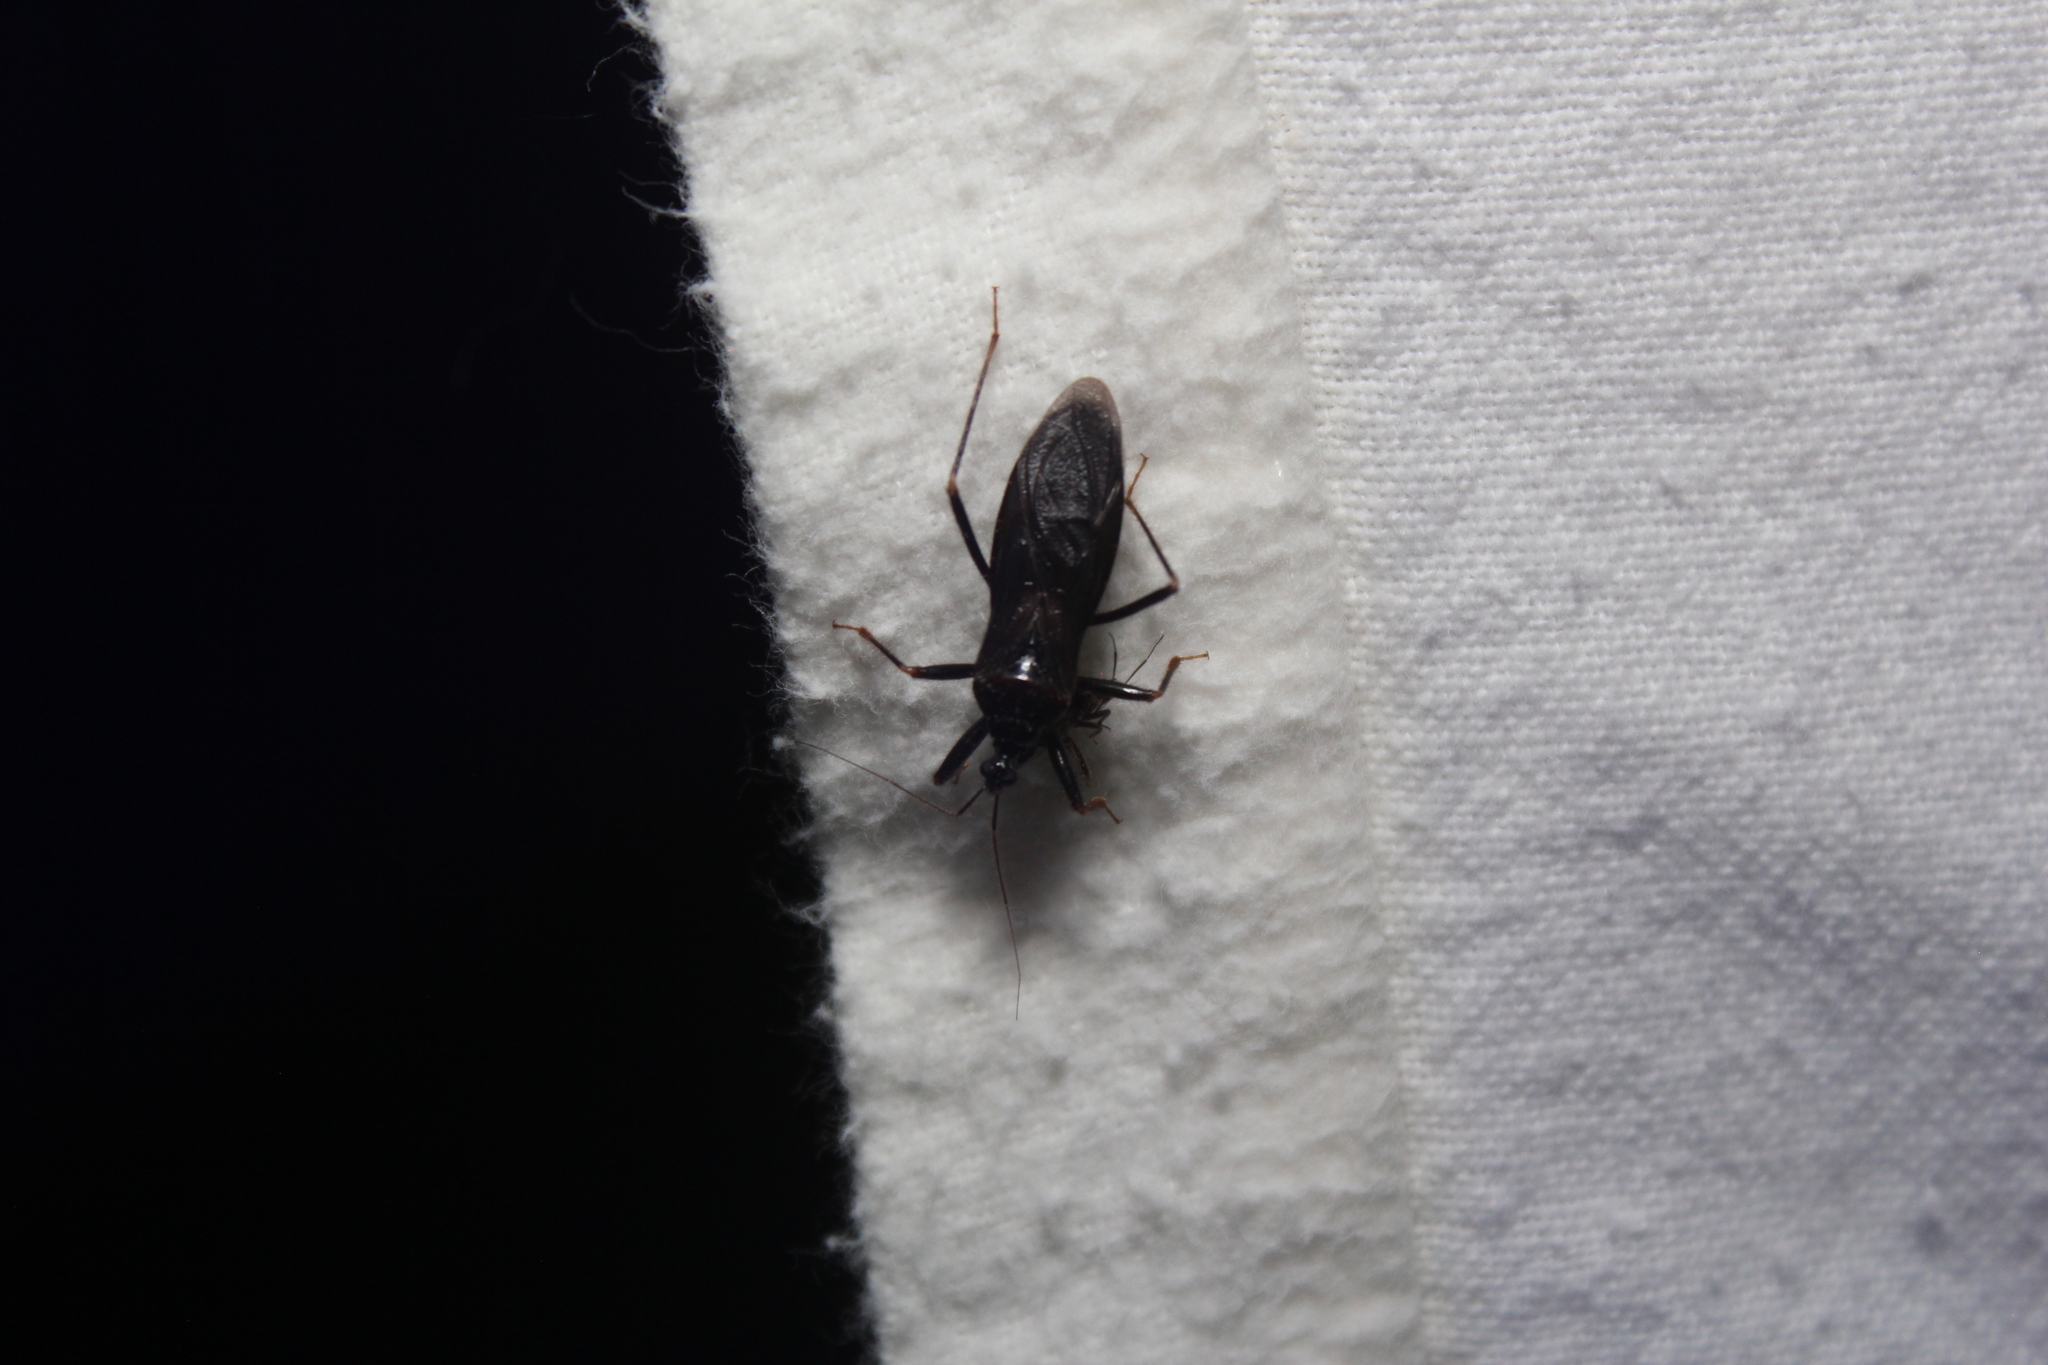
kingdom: Animalia
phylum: Arthropoda
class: Insecta
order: Hemiptera
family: Reduviidae
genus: Reduvius
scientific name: Reduvius personatus
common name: Masked hunter
